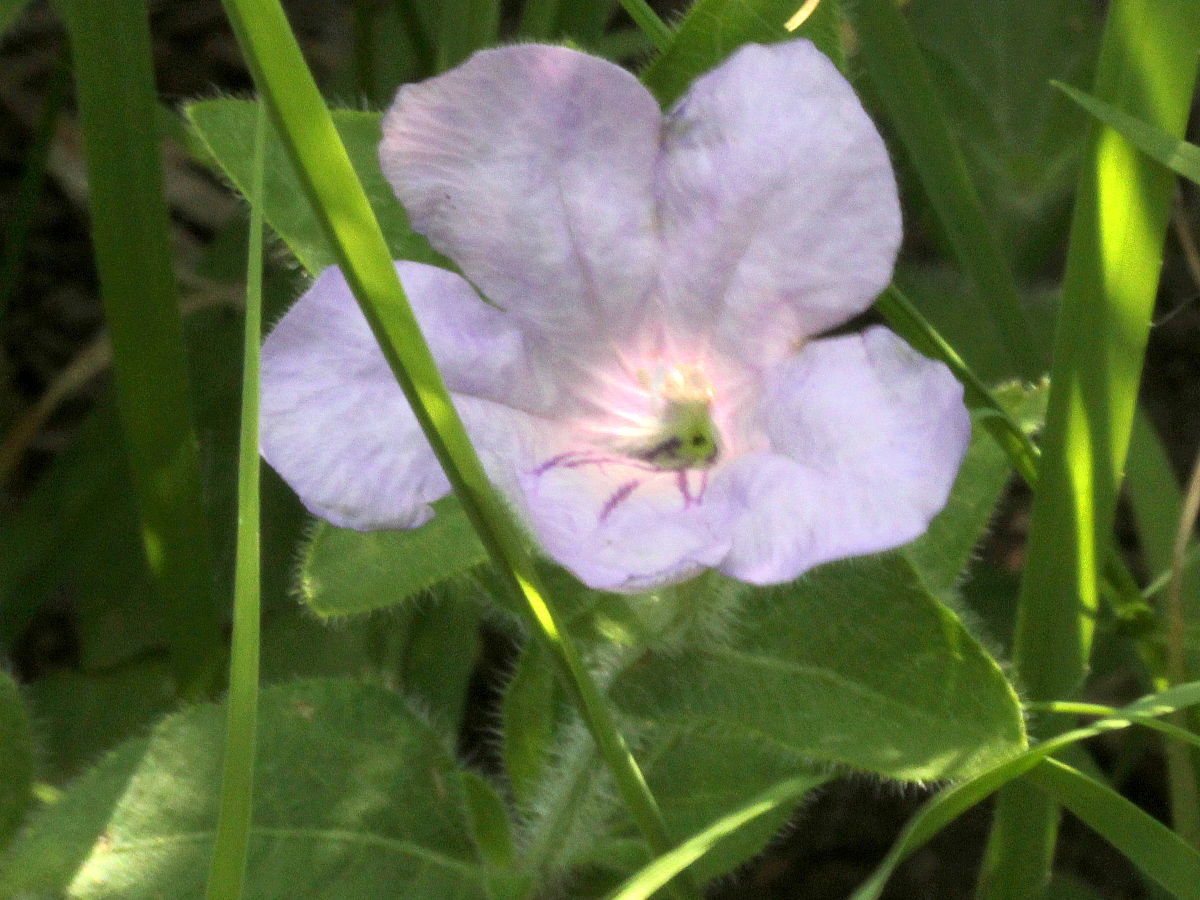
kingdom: Plantae
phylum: Tracheophyta
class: Magnoliopsida
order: Lamiales
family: Acanthaceae
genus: Ruellia
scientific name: Ruellia humilis
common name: Fringe-leaf ruellia
